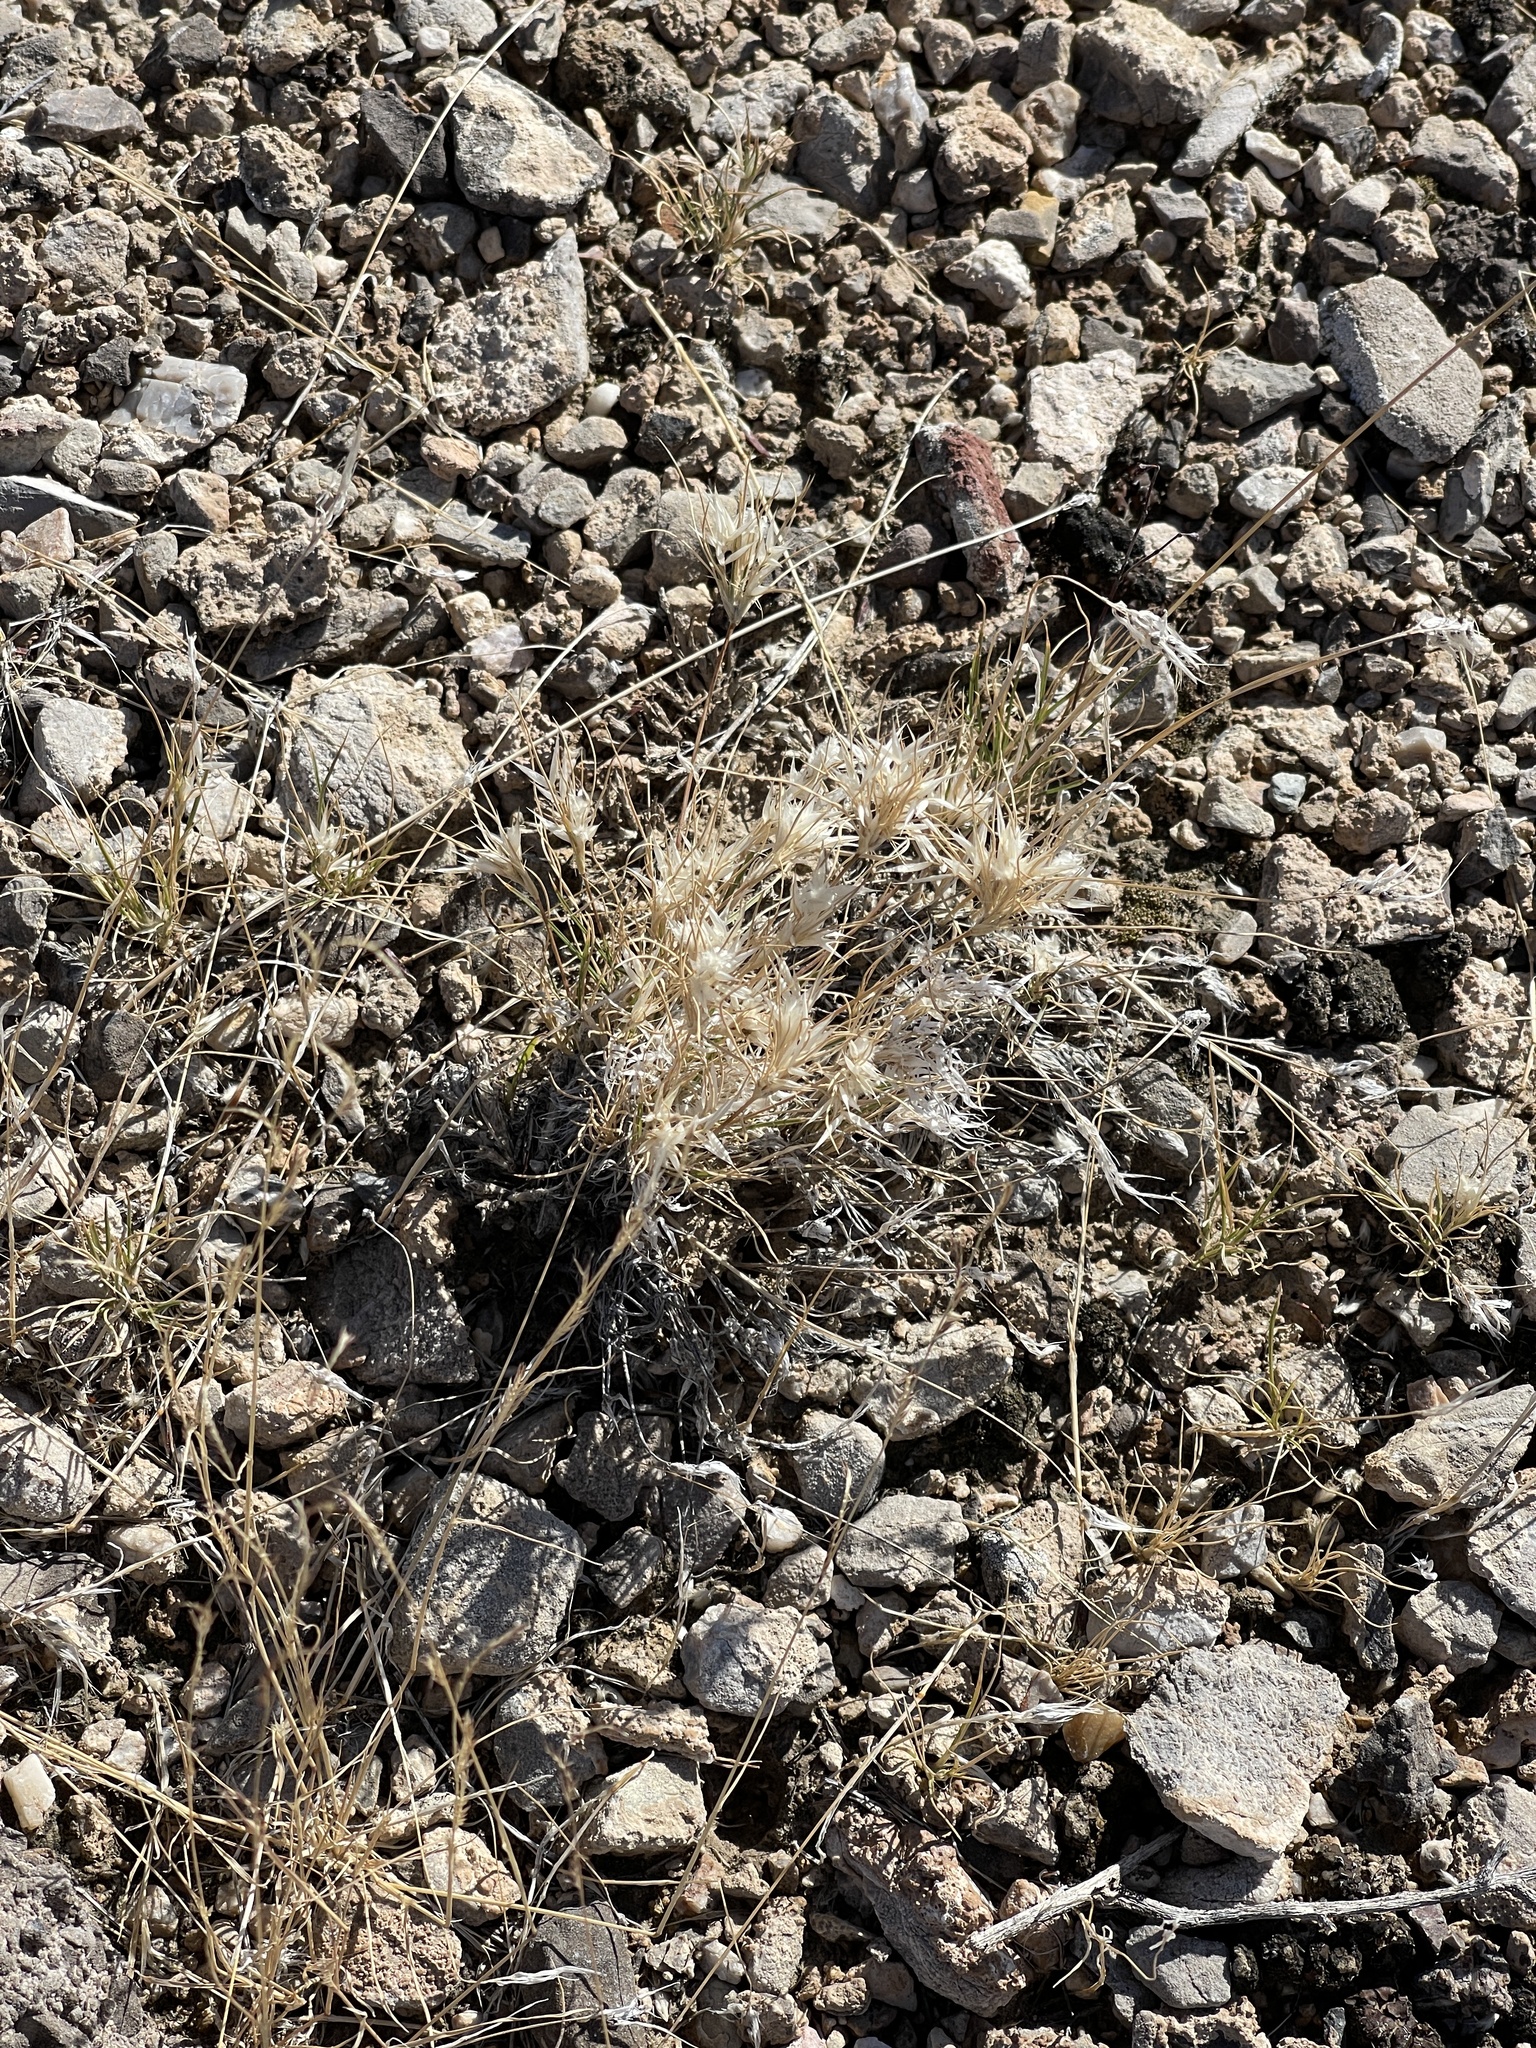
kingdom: Plantae
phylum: Tracheophyta
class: Liliopsida
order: Poales
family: Poaceae
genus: Dasyochloa
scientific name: Dasyochloa pulchella
